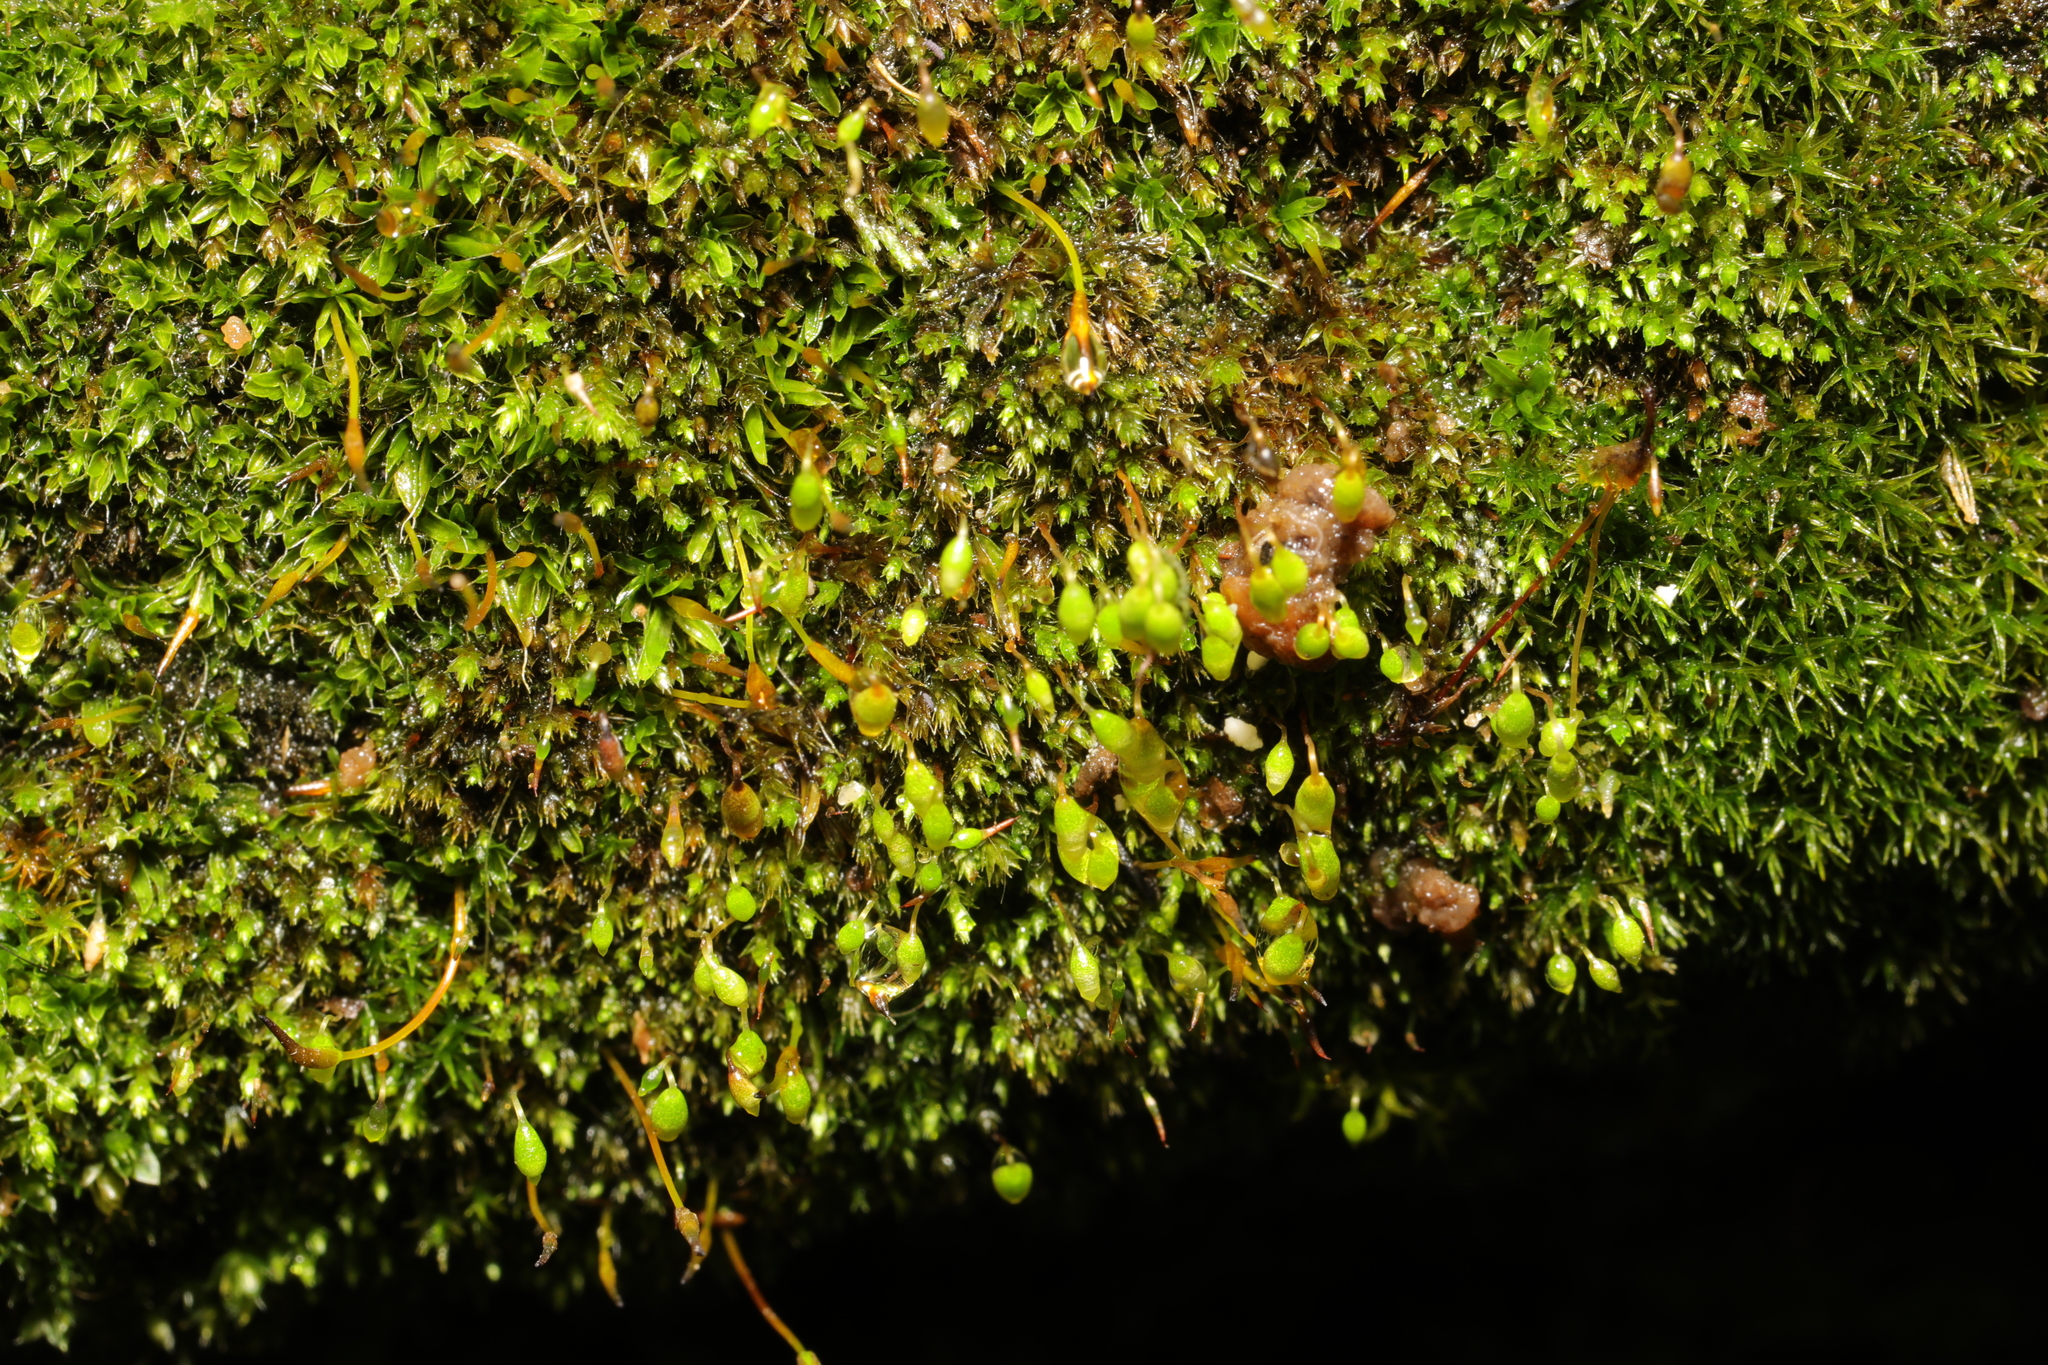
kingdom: Plantae
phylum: Bryophyta
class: Bryopsida
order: Bryales
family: Bryaceae
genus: Rosulabryum
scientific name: Rosulabryum capillare
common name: Capillary thread-moss
